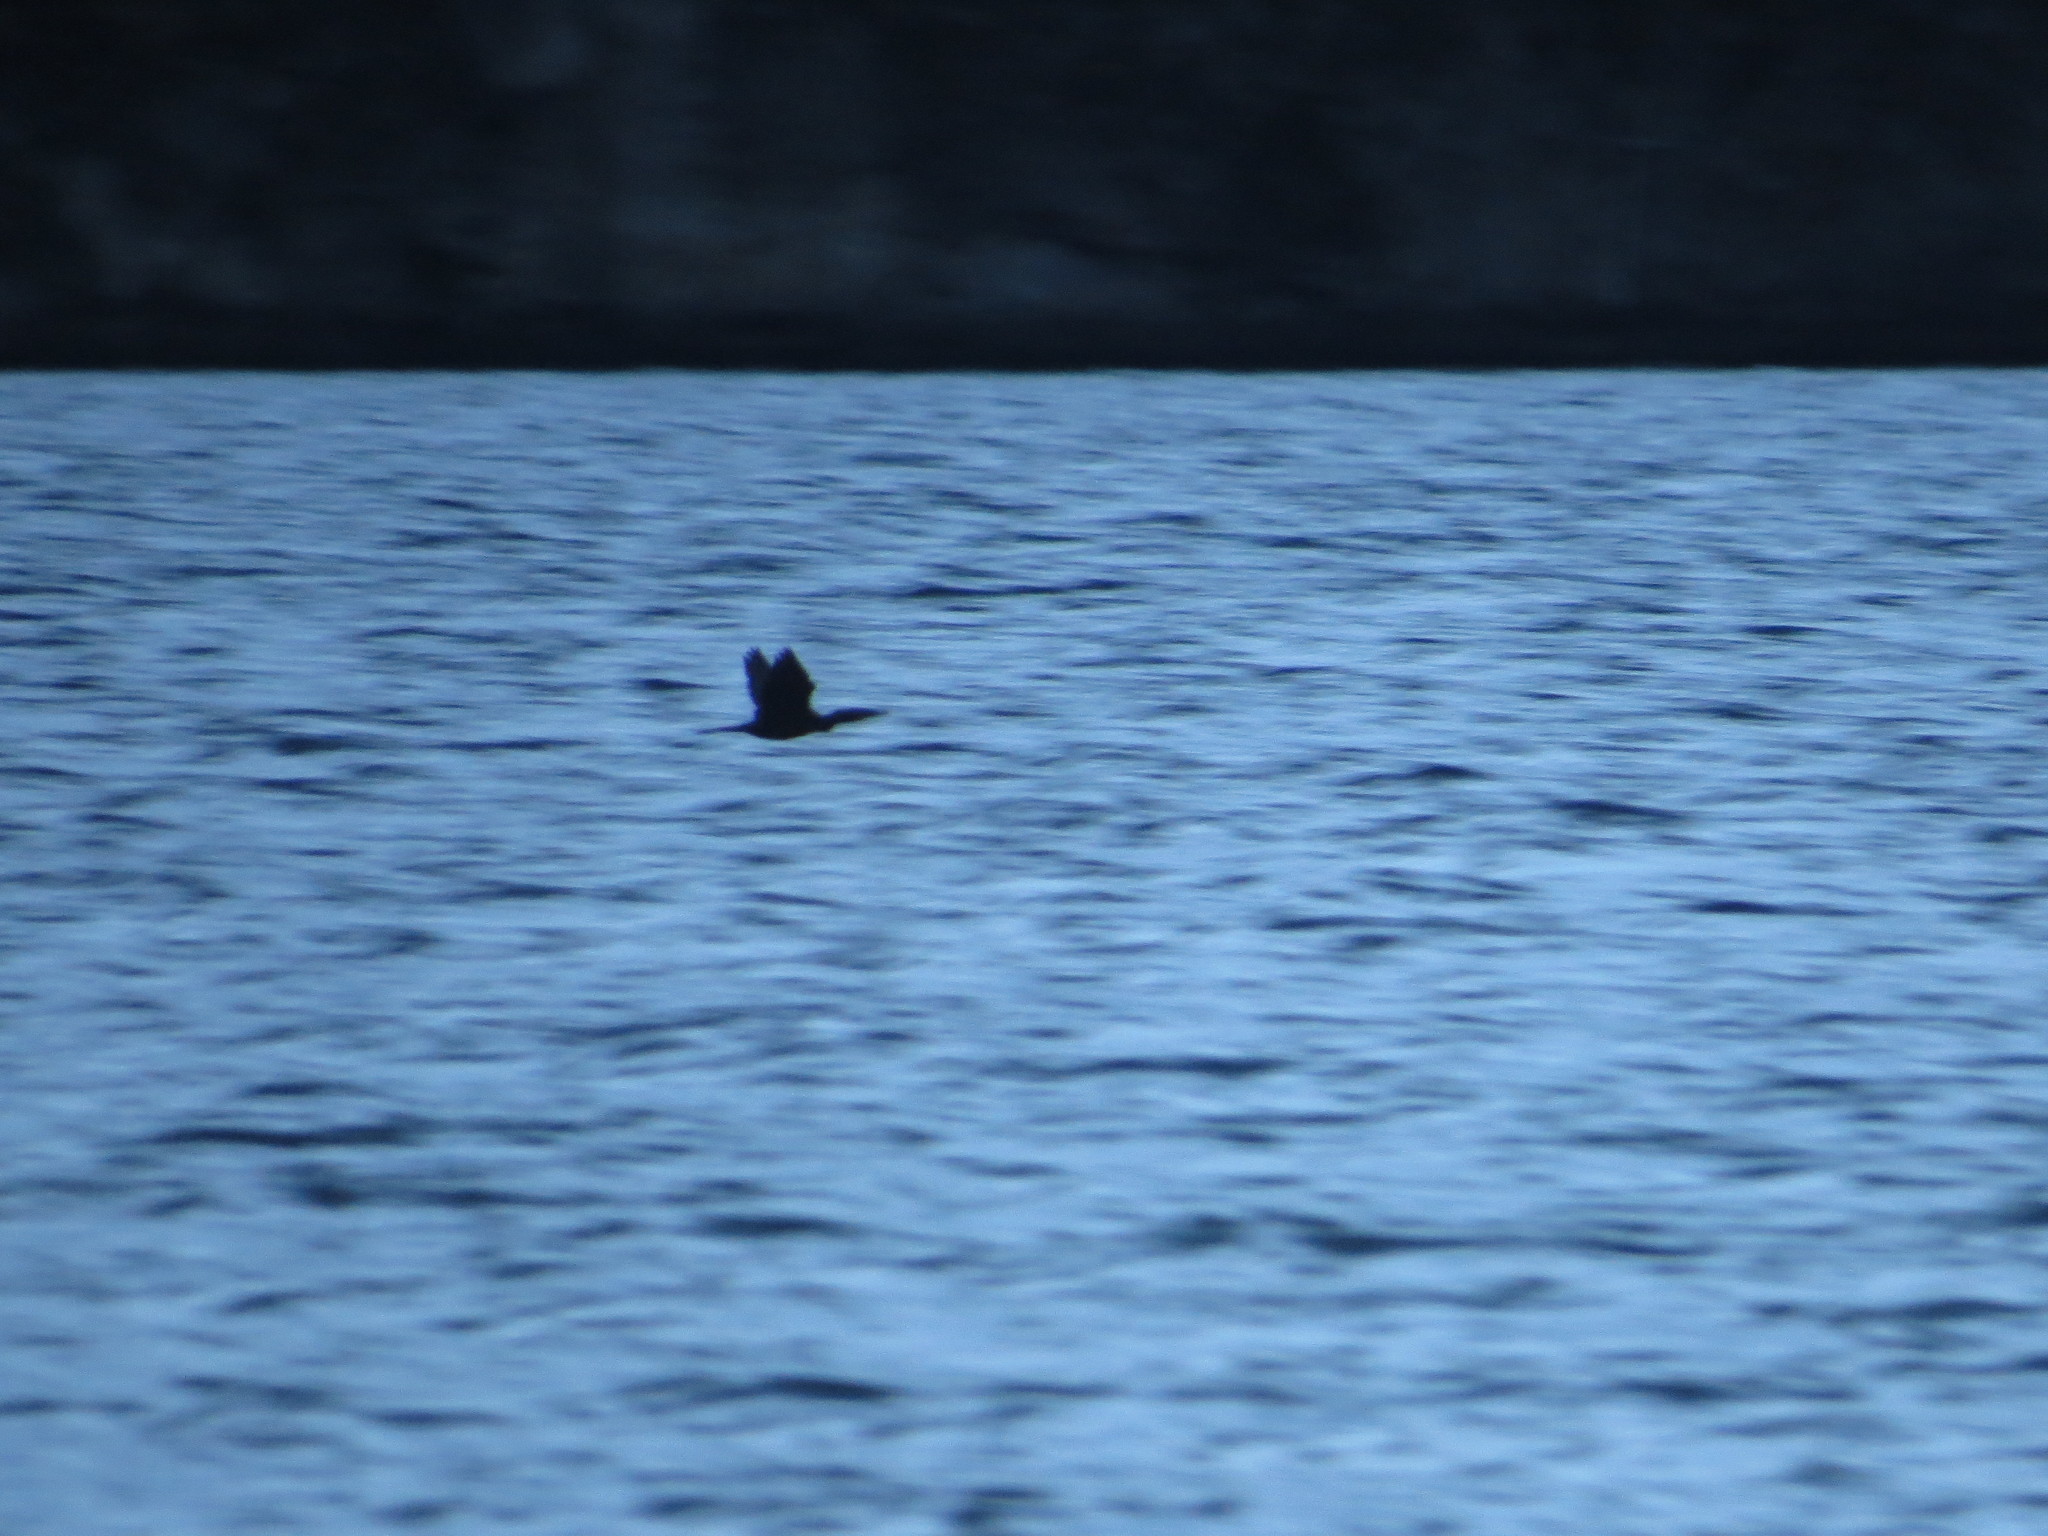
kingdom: Animalia
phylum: Chordata
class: Aves
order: Suliformes
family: Phalacrocoracidae
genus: Phalacrocorax
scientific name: Phalacrocorax brasilianus
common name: Neotropic cormorant
